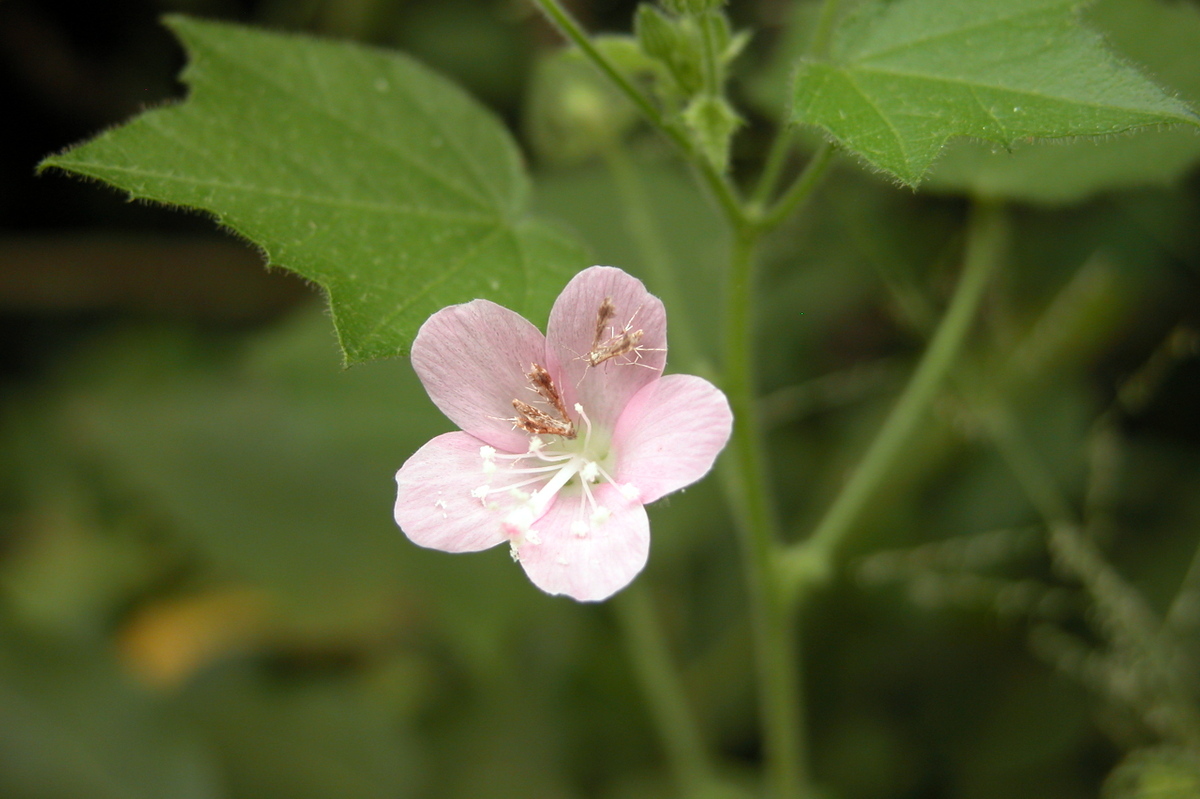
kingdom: Plantae
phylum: Tracheophyta
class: Magnoliopsida
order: Malvales
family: Malvaceae
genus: Pavonia
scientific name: Pavonia zeylonica
